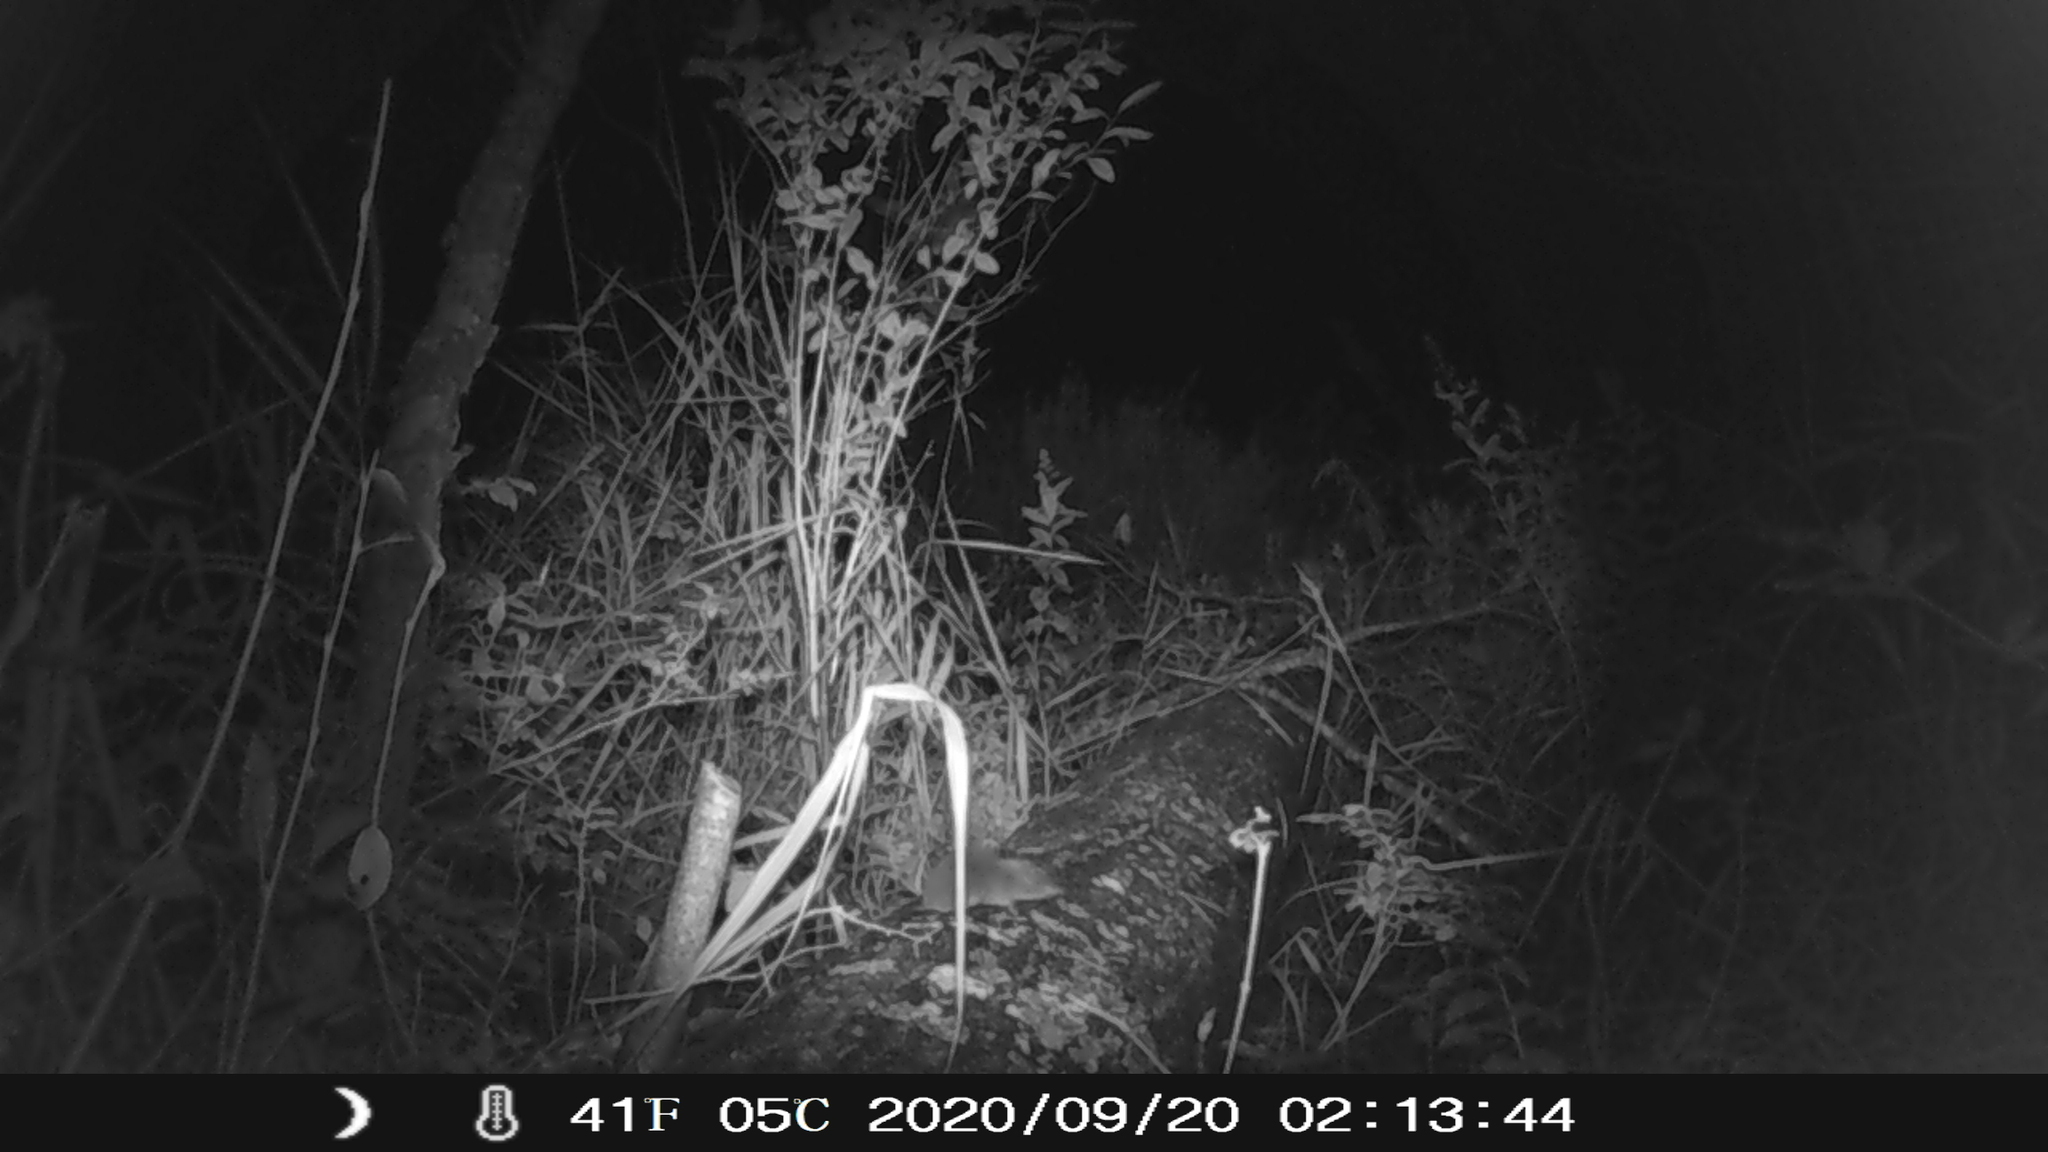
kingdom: Animalia
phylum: Chordata
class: Mammalia
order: Soricomorpha
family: Soricidae
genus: Blarina
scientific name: Blarina brevicauda
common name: Northern short-tailed shrew
